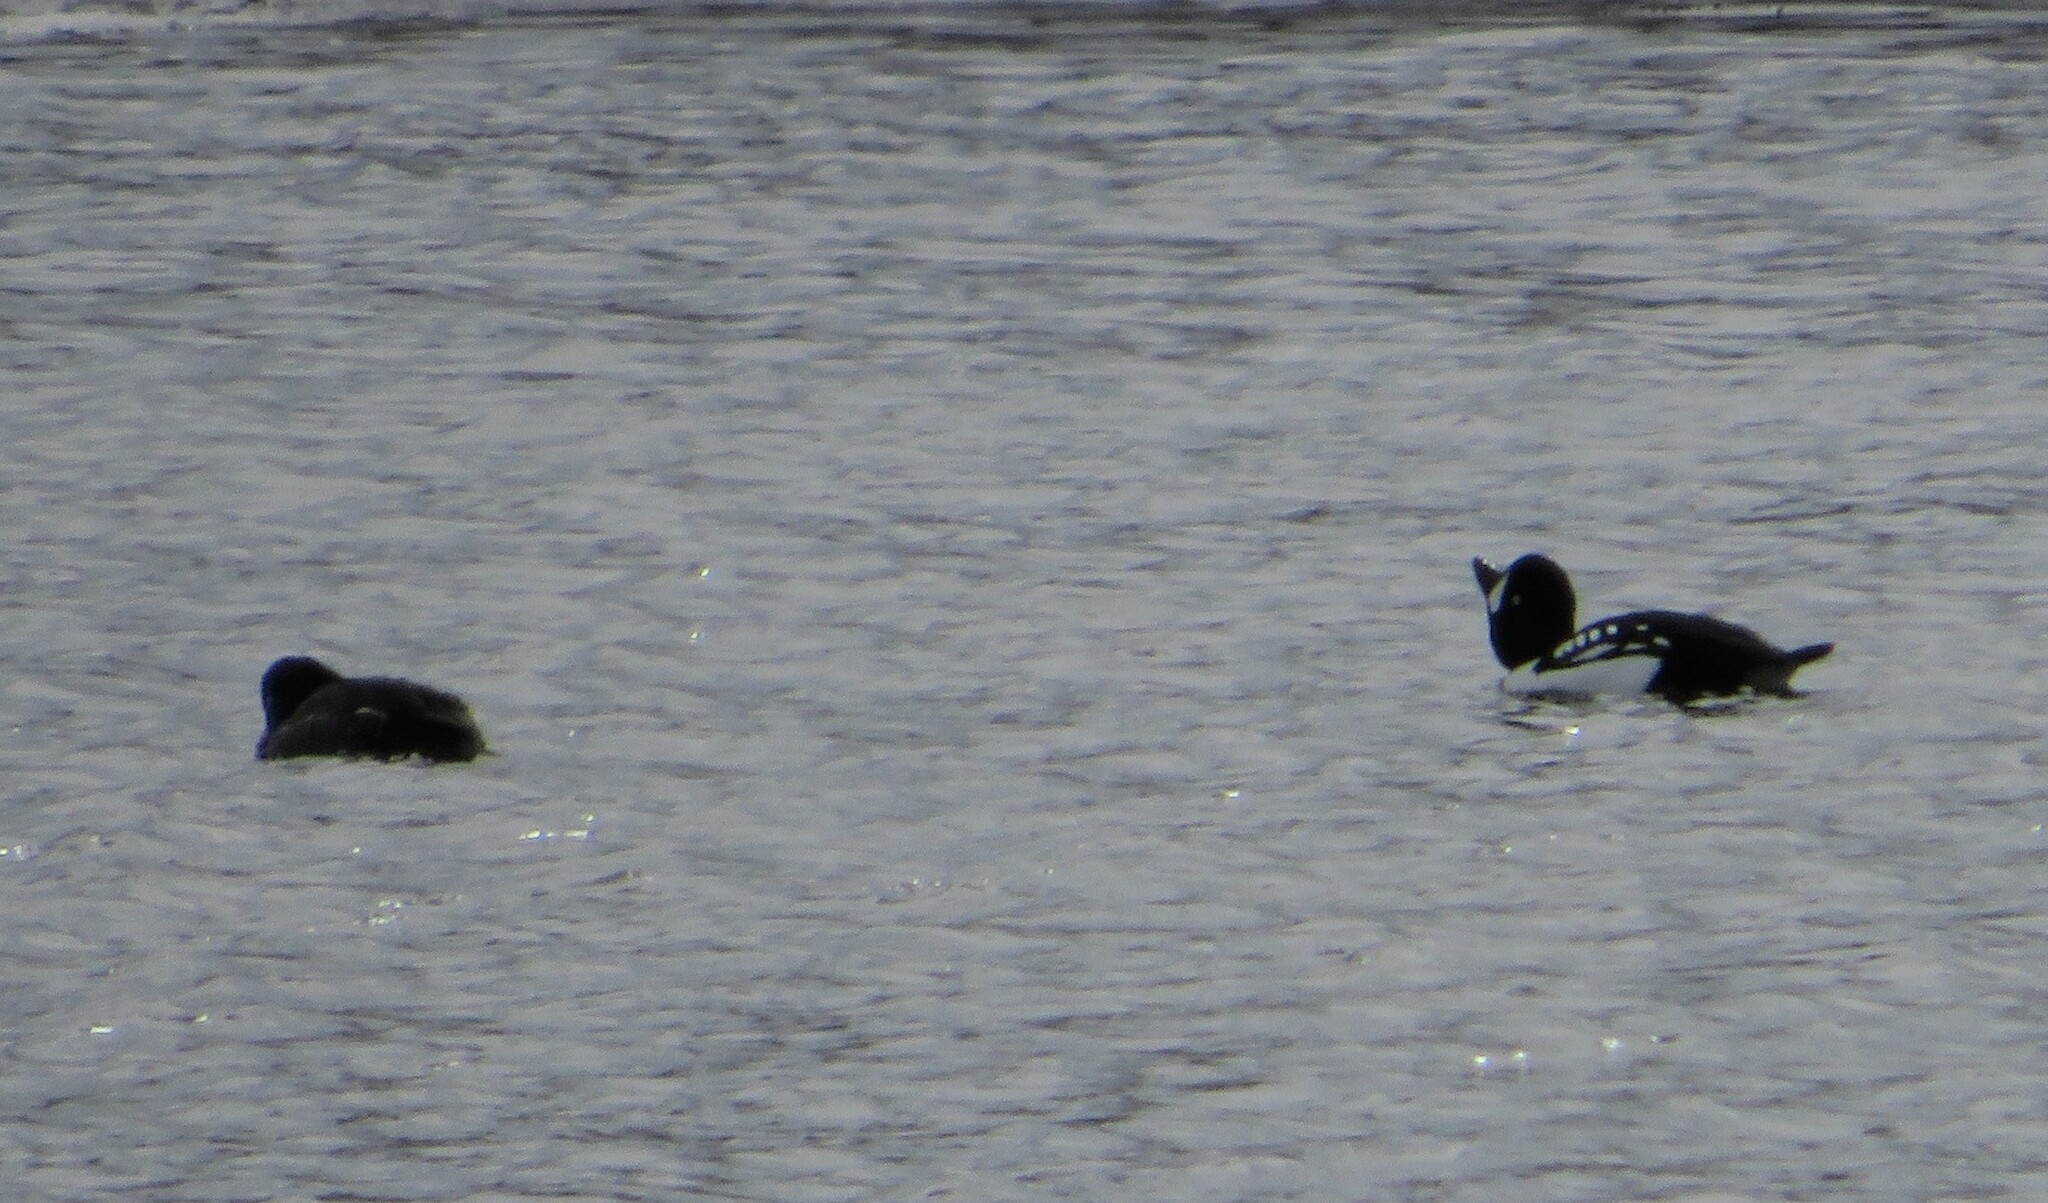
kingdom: Animalia
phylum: Chordata
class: Aves
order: Anseriformes
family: Anatidae
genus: Bucephala
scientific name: Bucephala islandica
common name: Barrow's goldeneye
